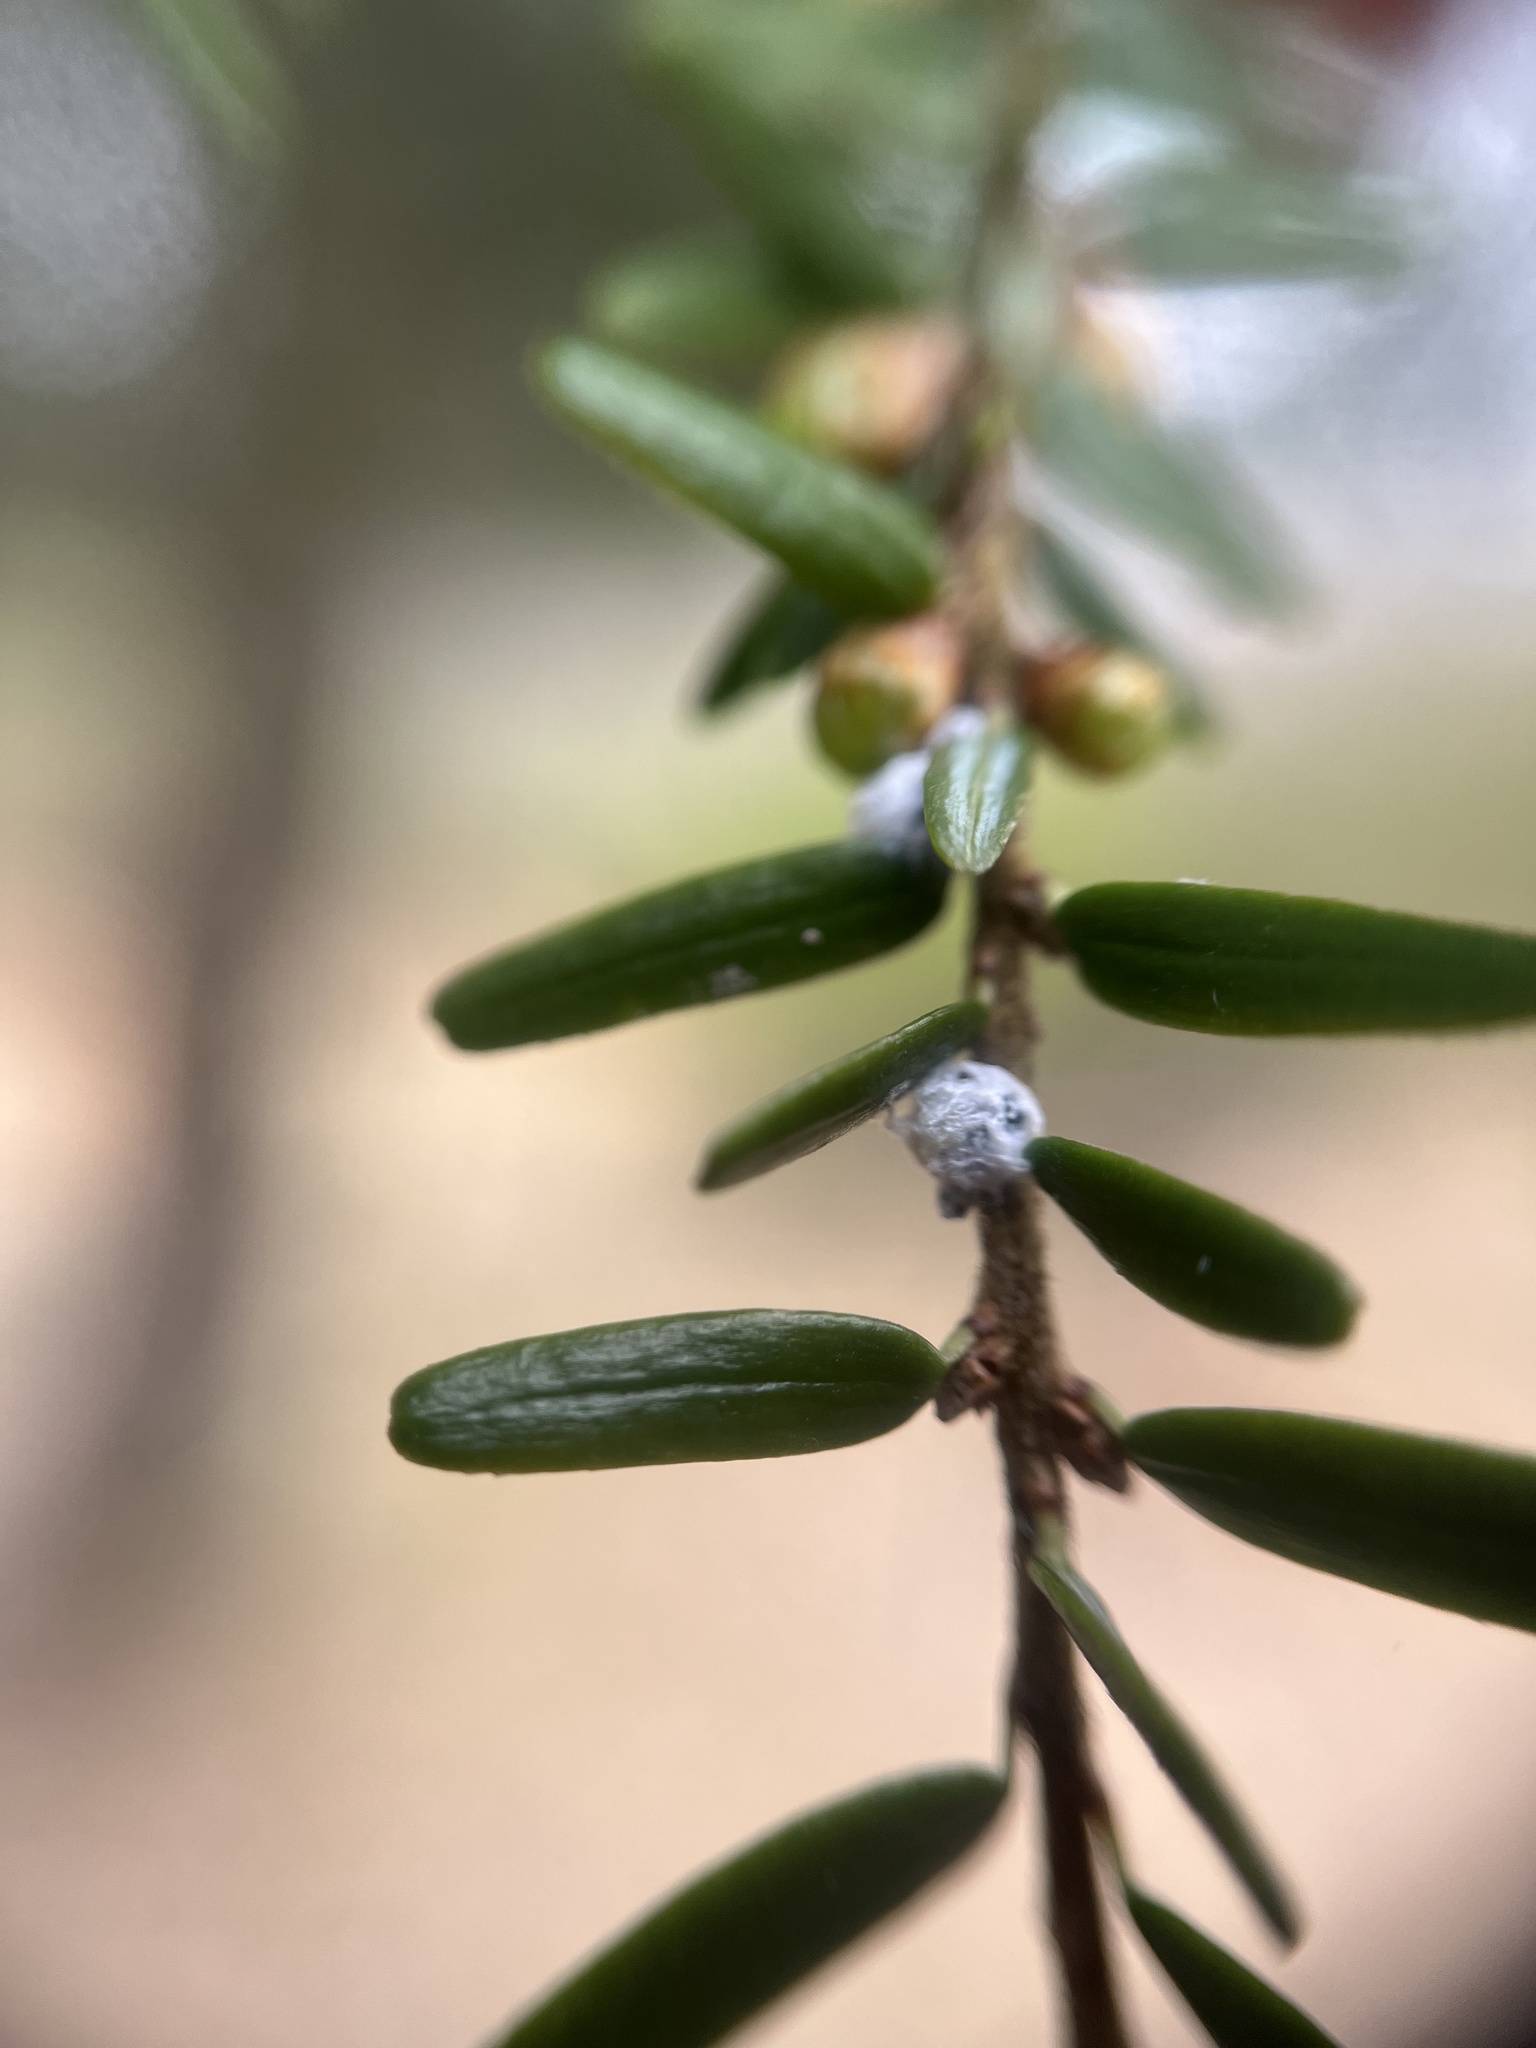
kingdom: Animalia
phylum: Arthropoda
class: Insecta
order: Hemiptera
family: Adelgidae
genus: Adelges
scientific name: Adelges tsugae
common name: Hemlock woolly adelgid
